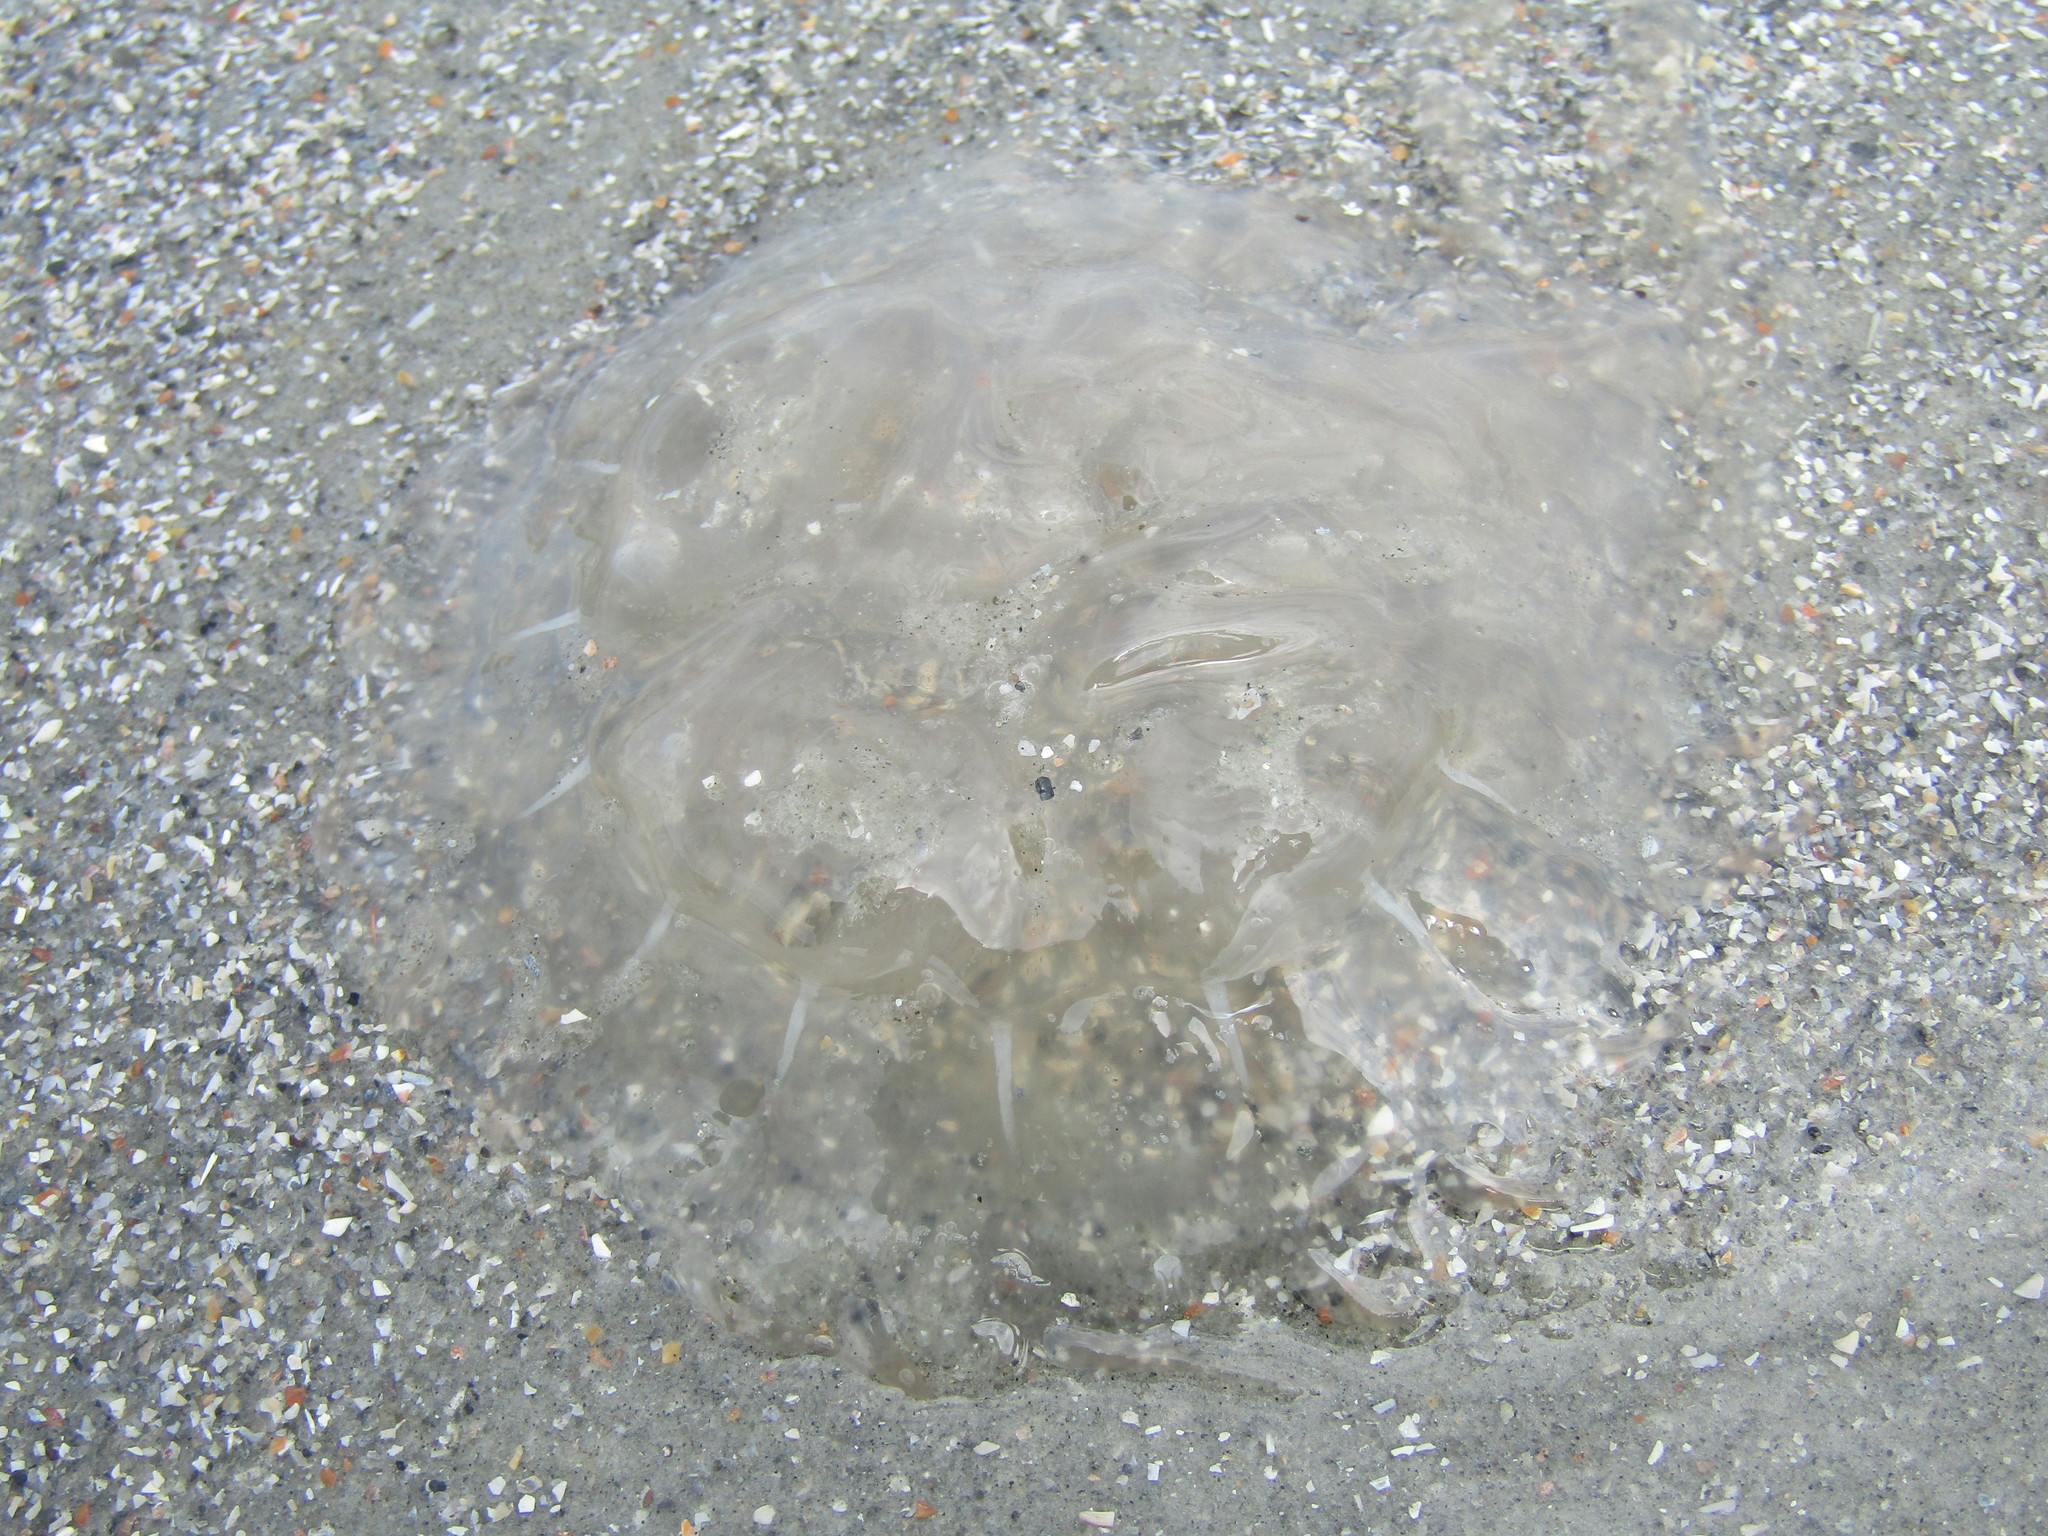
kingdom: Animalia
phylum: Cnidaria
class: Scyphozoa
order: Semaeostomeae
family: Pelagiidae
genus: Chrysaora
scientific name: Chrysaora chesapeakei
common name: Bay nettle
